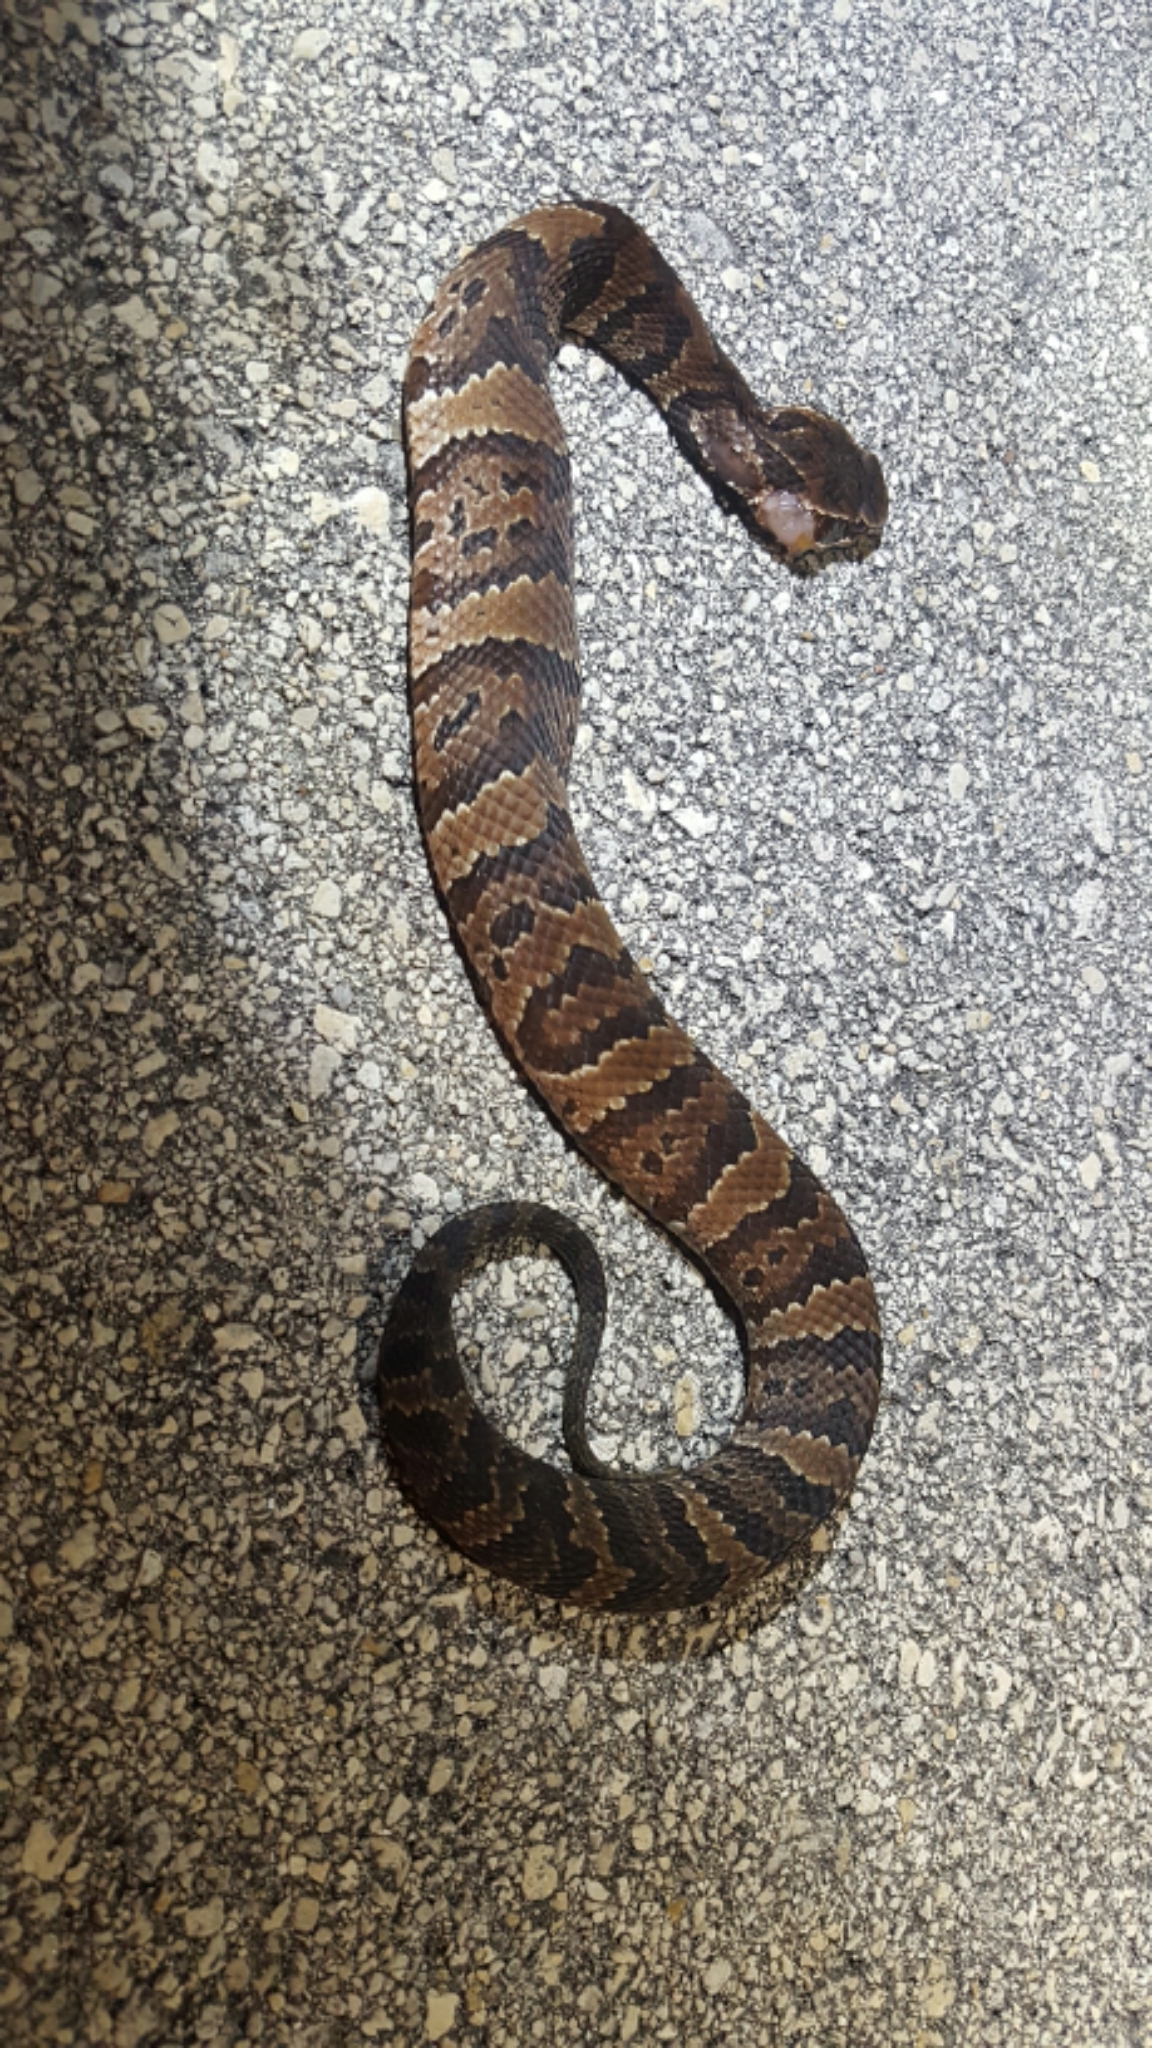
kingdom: Animalia
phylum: Chordata
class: Squamata
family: Viperidae
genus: Agkistrodon
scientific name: Agkistrodon conanti
